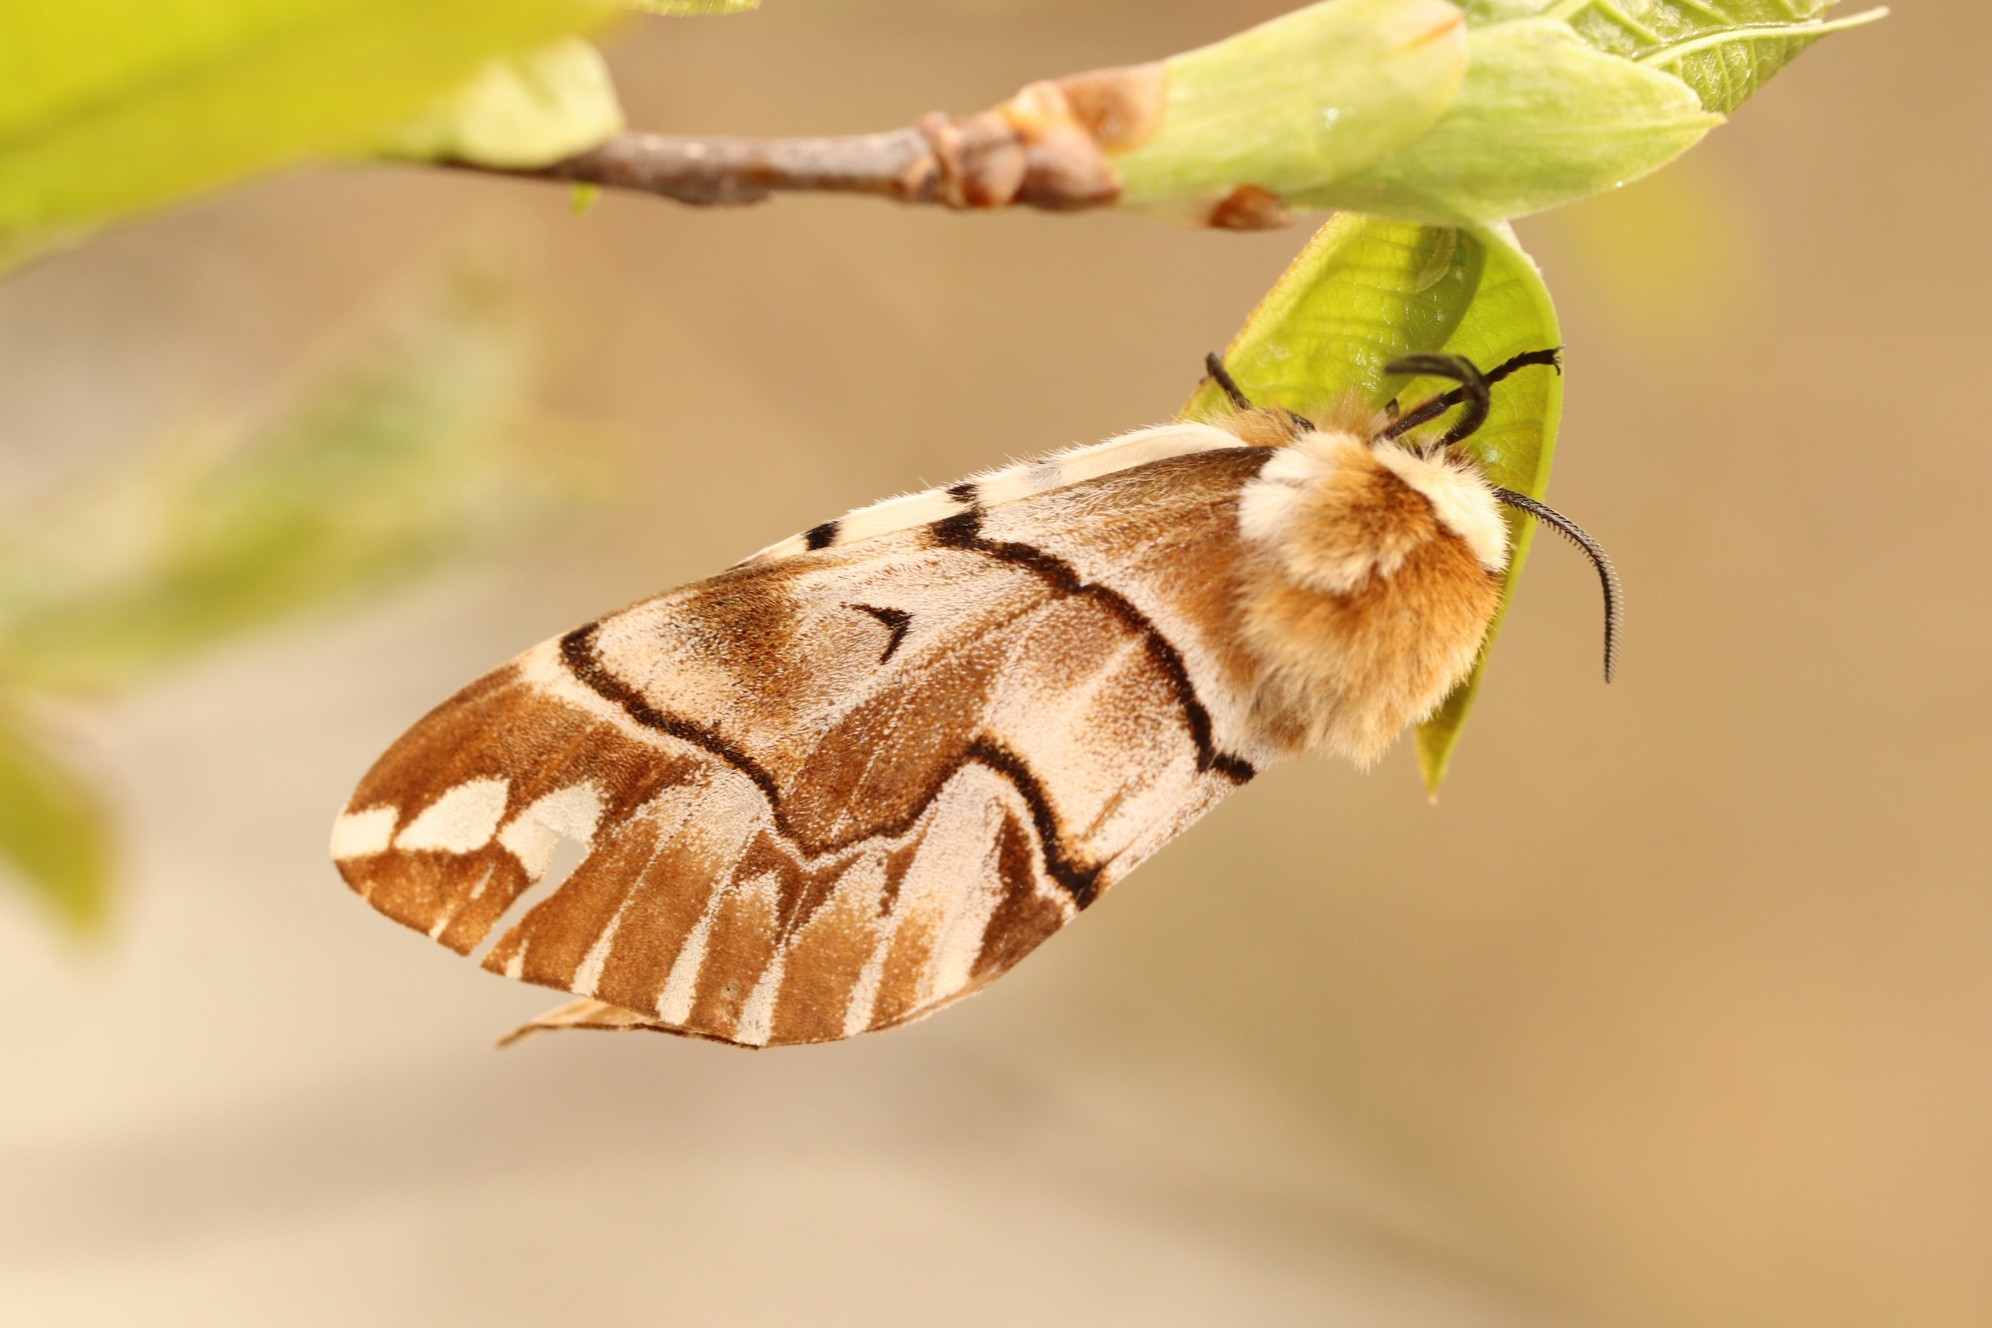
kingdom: Animalia
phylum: Arthropoda
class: Insecta
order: Lepidoptera
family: Endromidae
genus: Endromis
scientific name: Endromis versicolora
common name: Kentish glory
